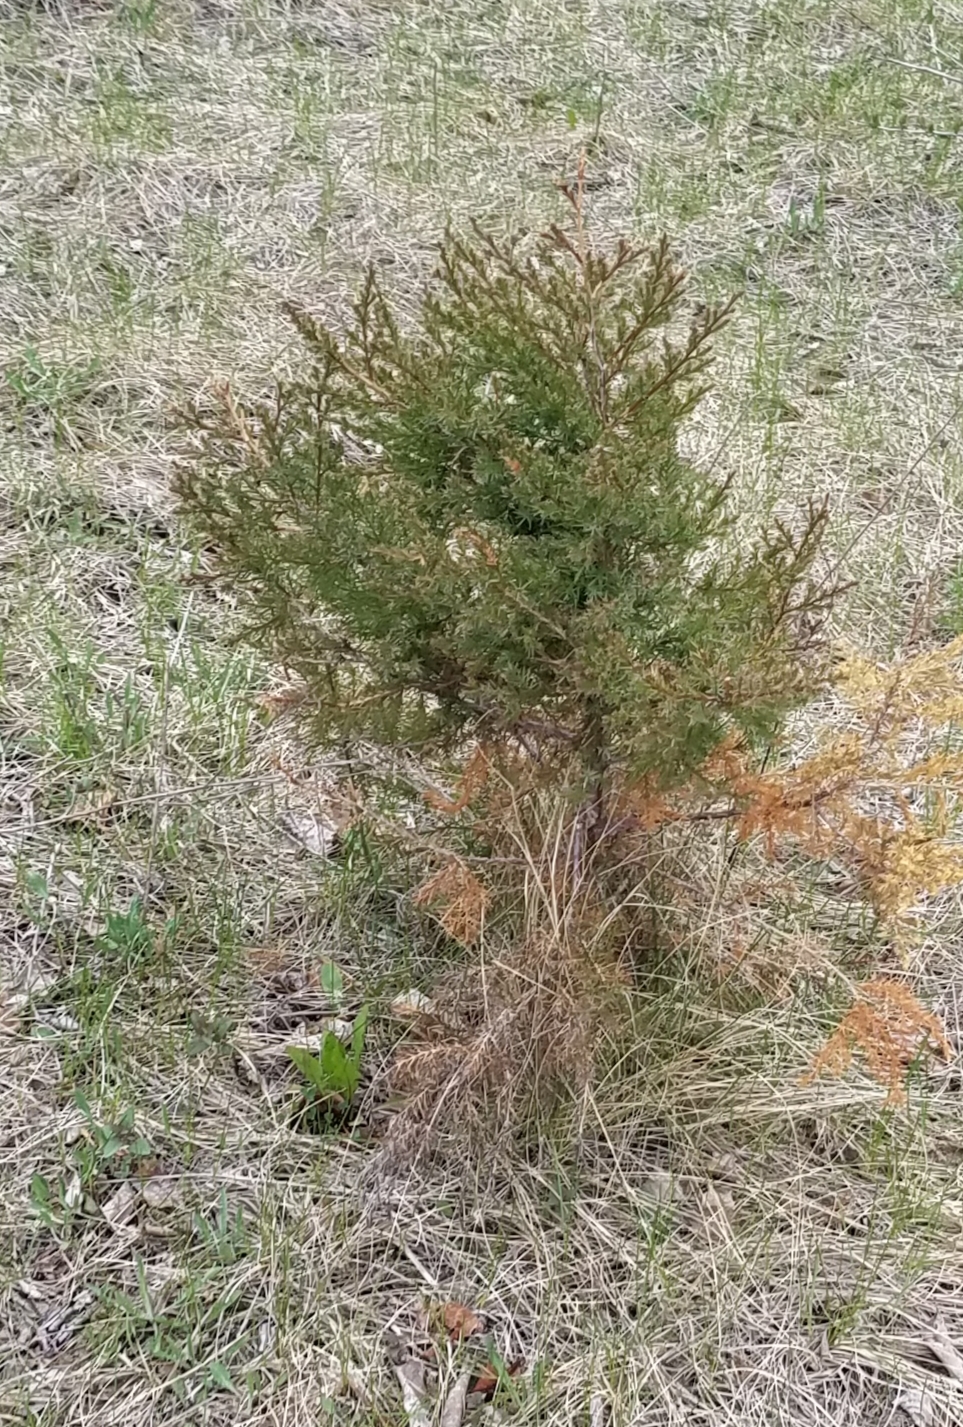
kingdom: Plantae
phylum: Tracheophyta
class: Pinopsida
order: Pinales
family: Cupressaceae
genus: Juniperus
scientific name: Juniperus virginiana
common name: Red juniper
